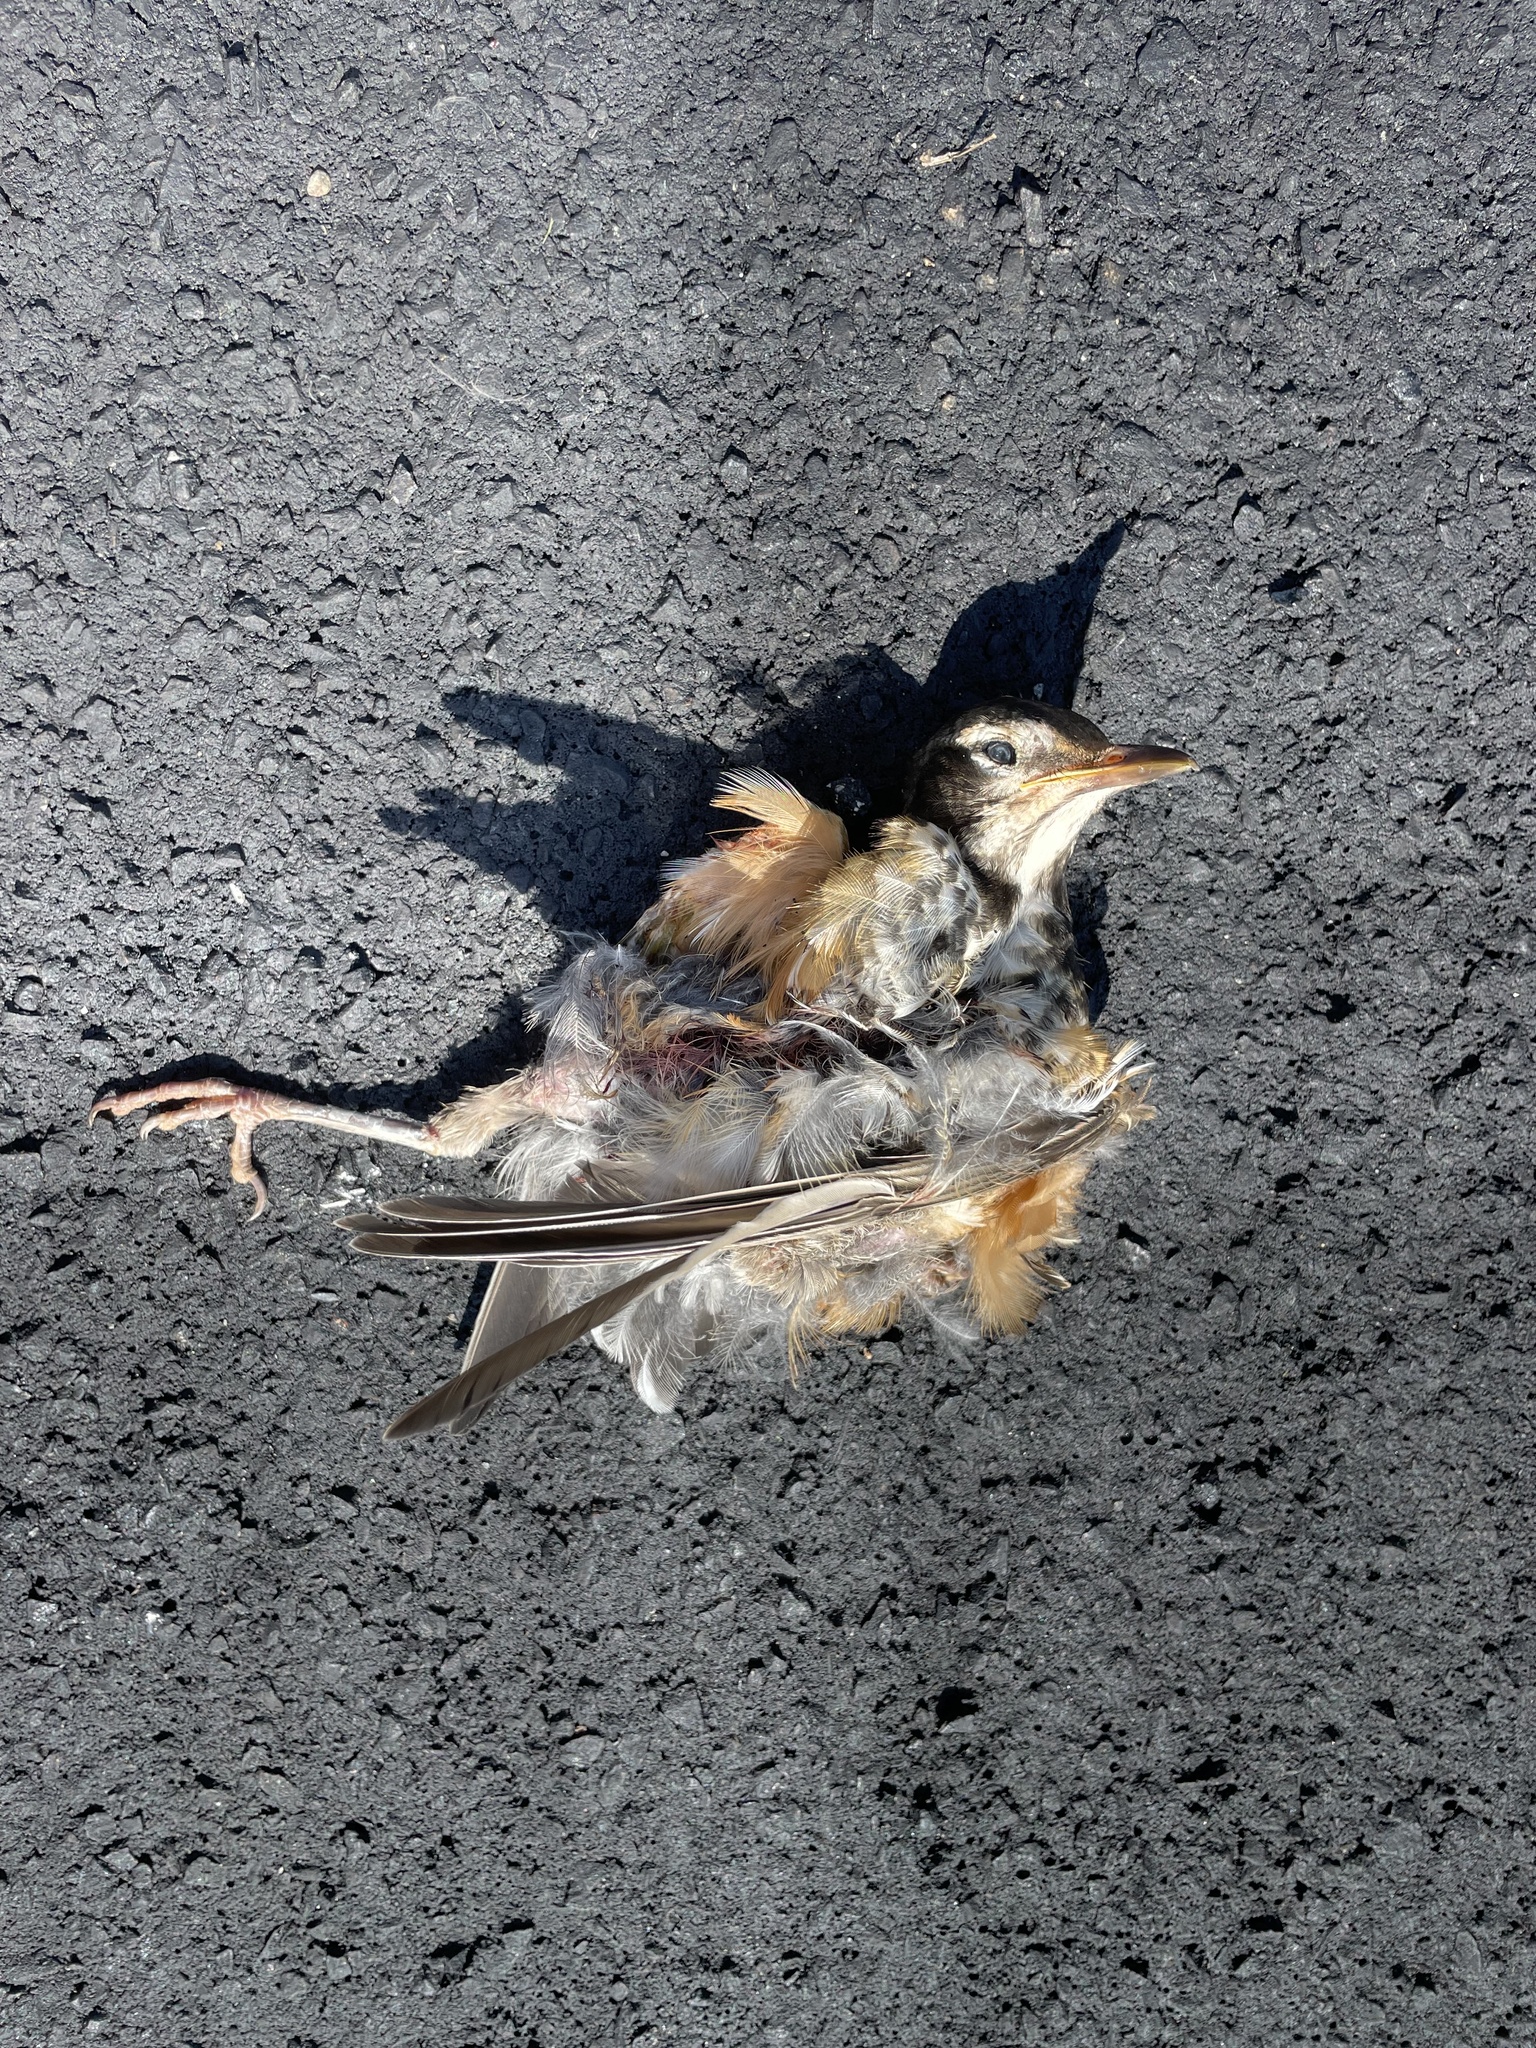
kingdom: Animalia
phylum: Chordata
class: Aves
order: Passeriformes
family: Turdidae
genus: Turdus
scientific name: Turdus migratorius
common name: American robin
